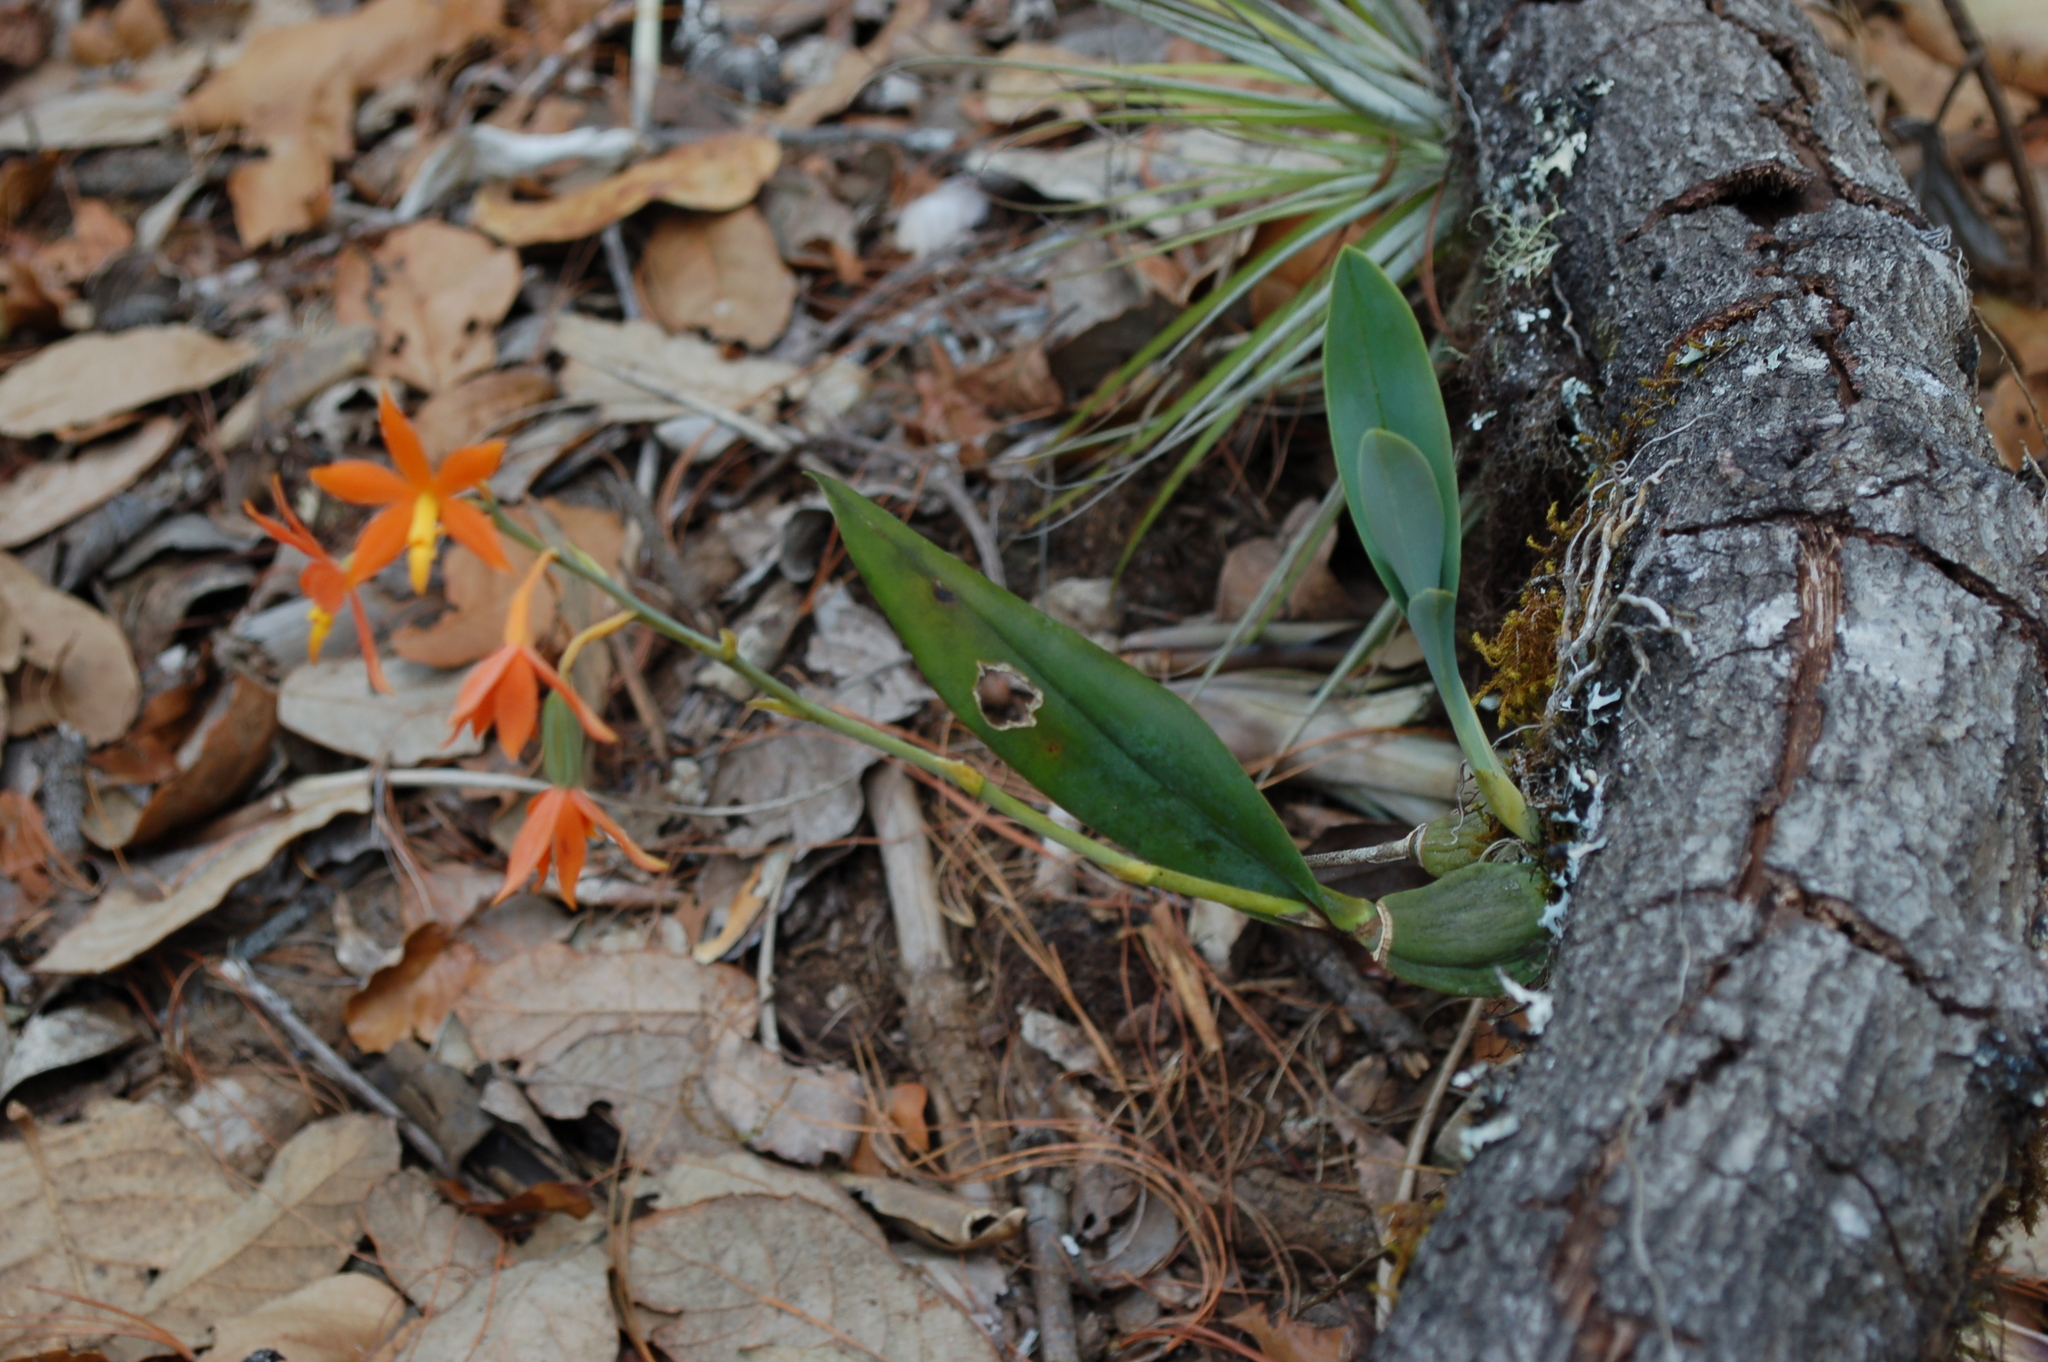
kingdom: Plantae
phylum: Tracheophyta
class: Liliopsida
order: Asparagales
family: Orchidaceae
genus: Prosthechea
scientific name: Prosthechea vitellina
